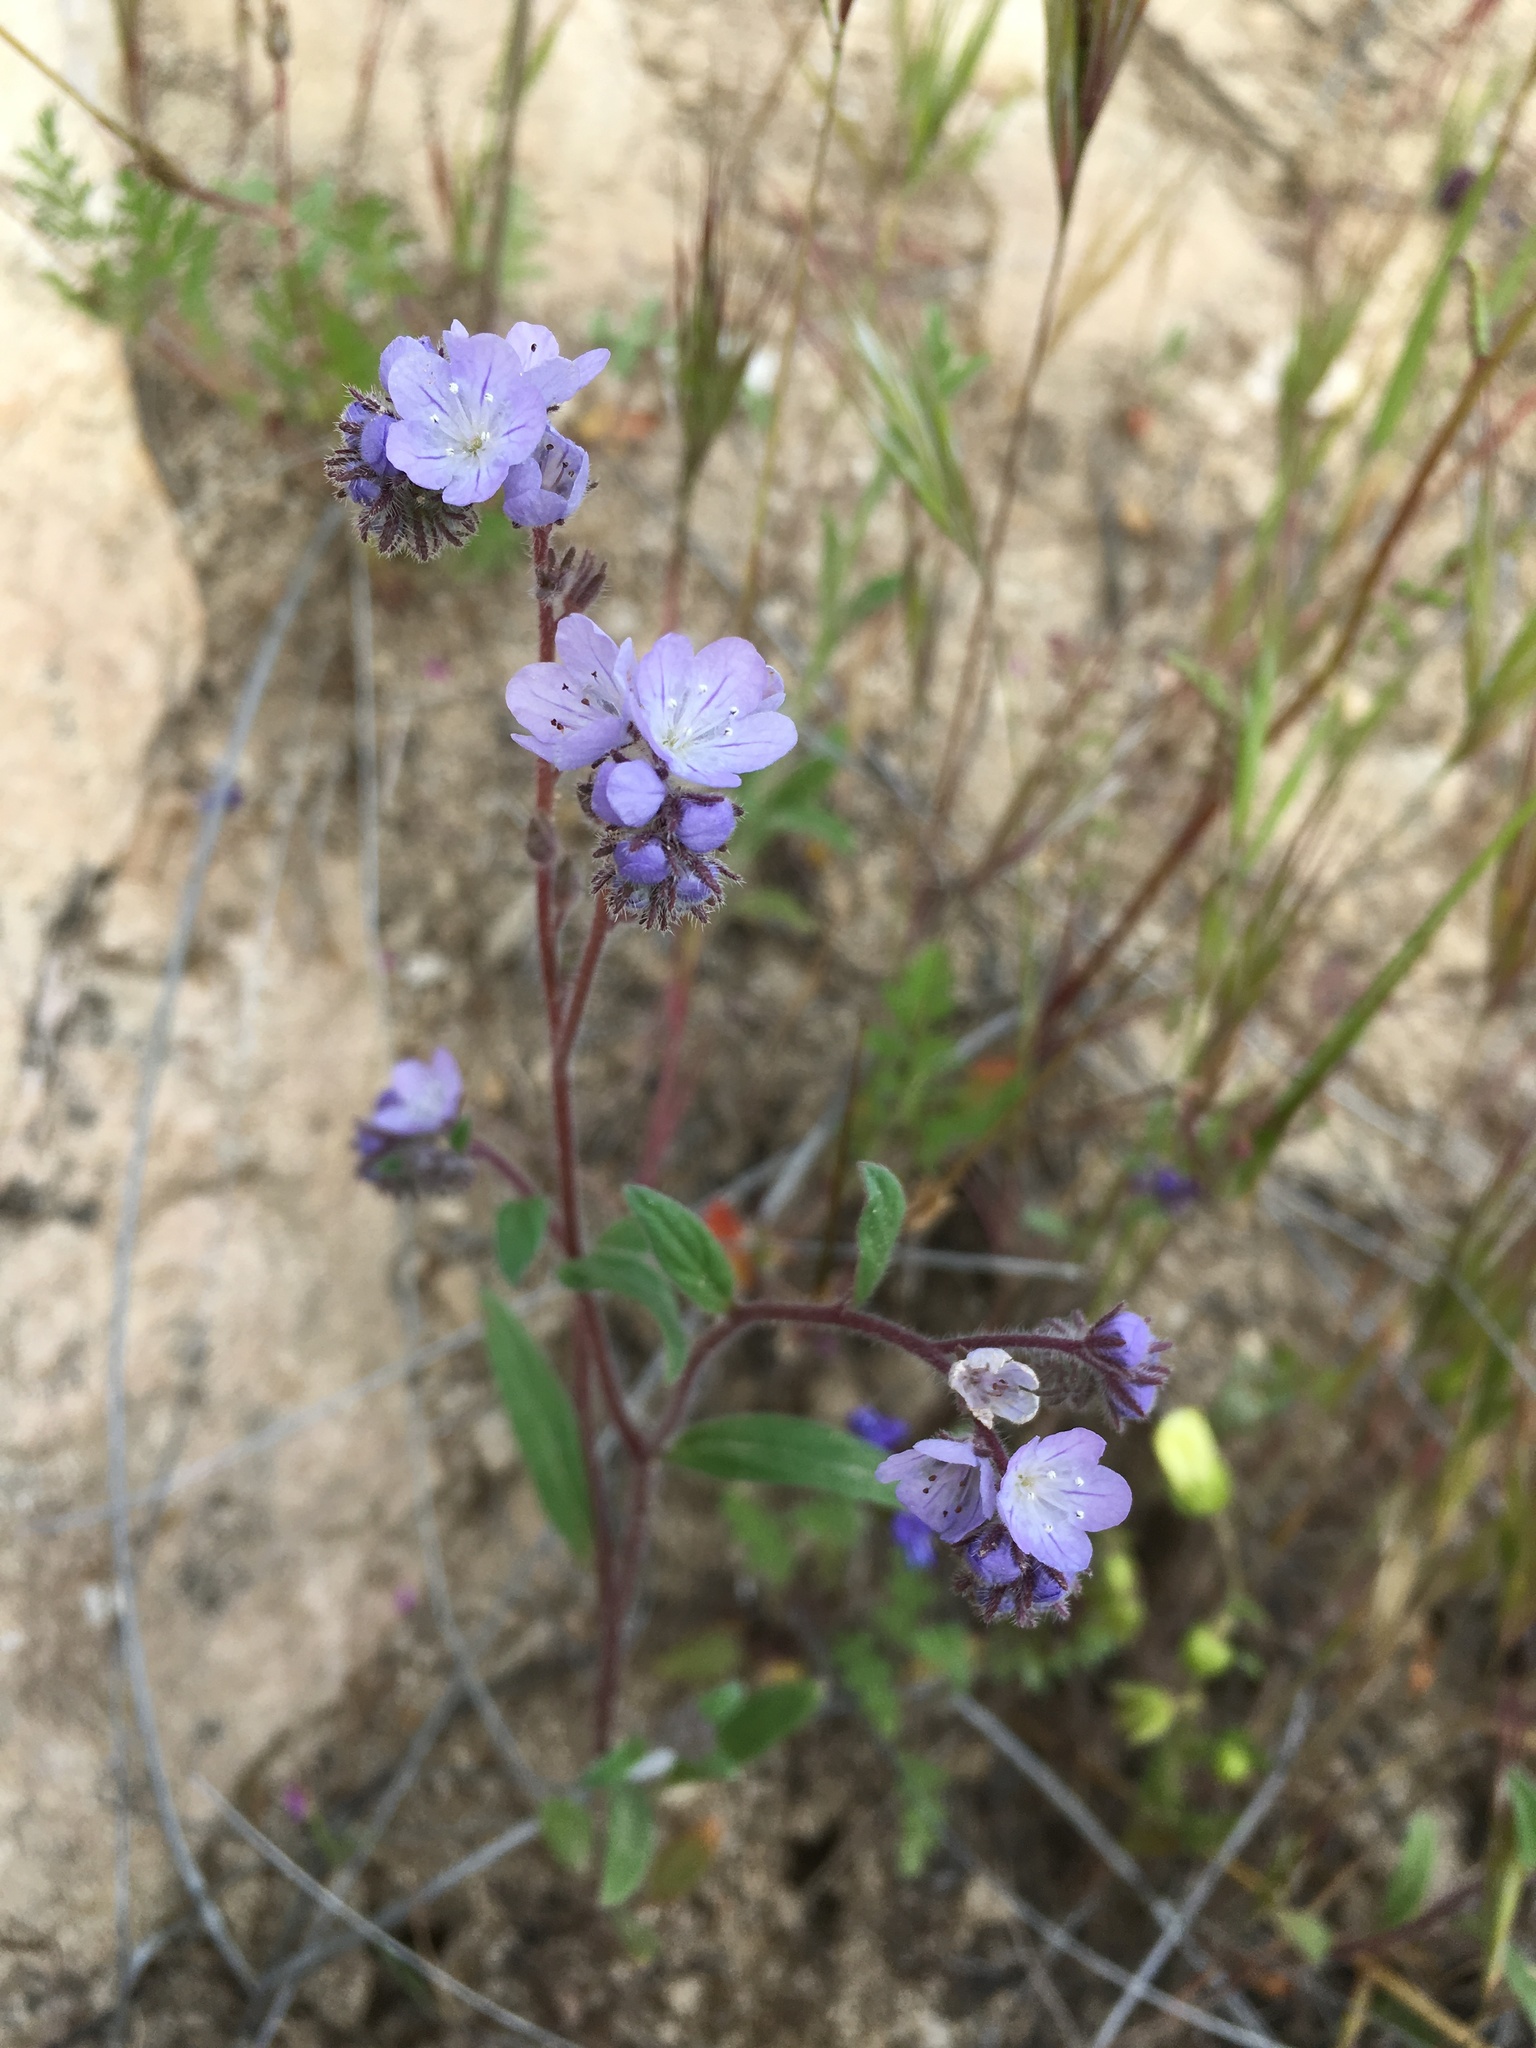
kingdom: Plantae
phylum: Tracheophyta
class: Magnoliopsida
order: Boraginales
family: Hydrophyllaceae
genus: Phacelia
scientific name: Phacelia breweri
